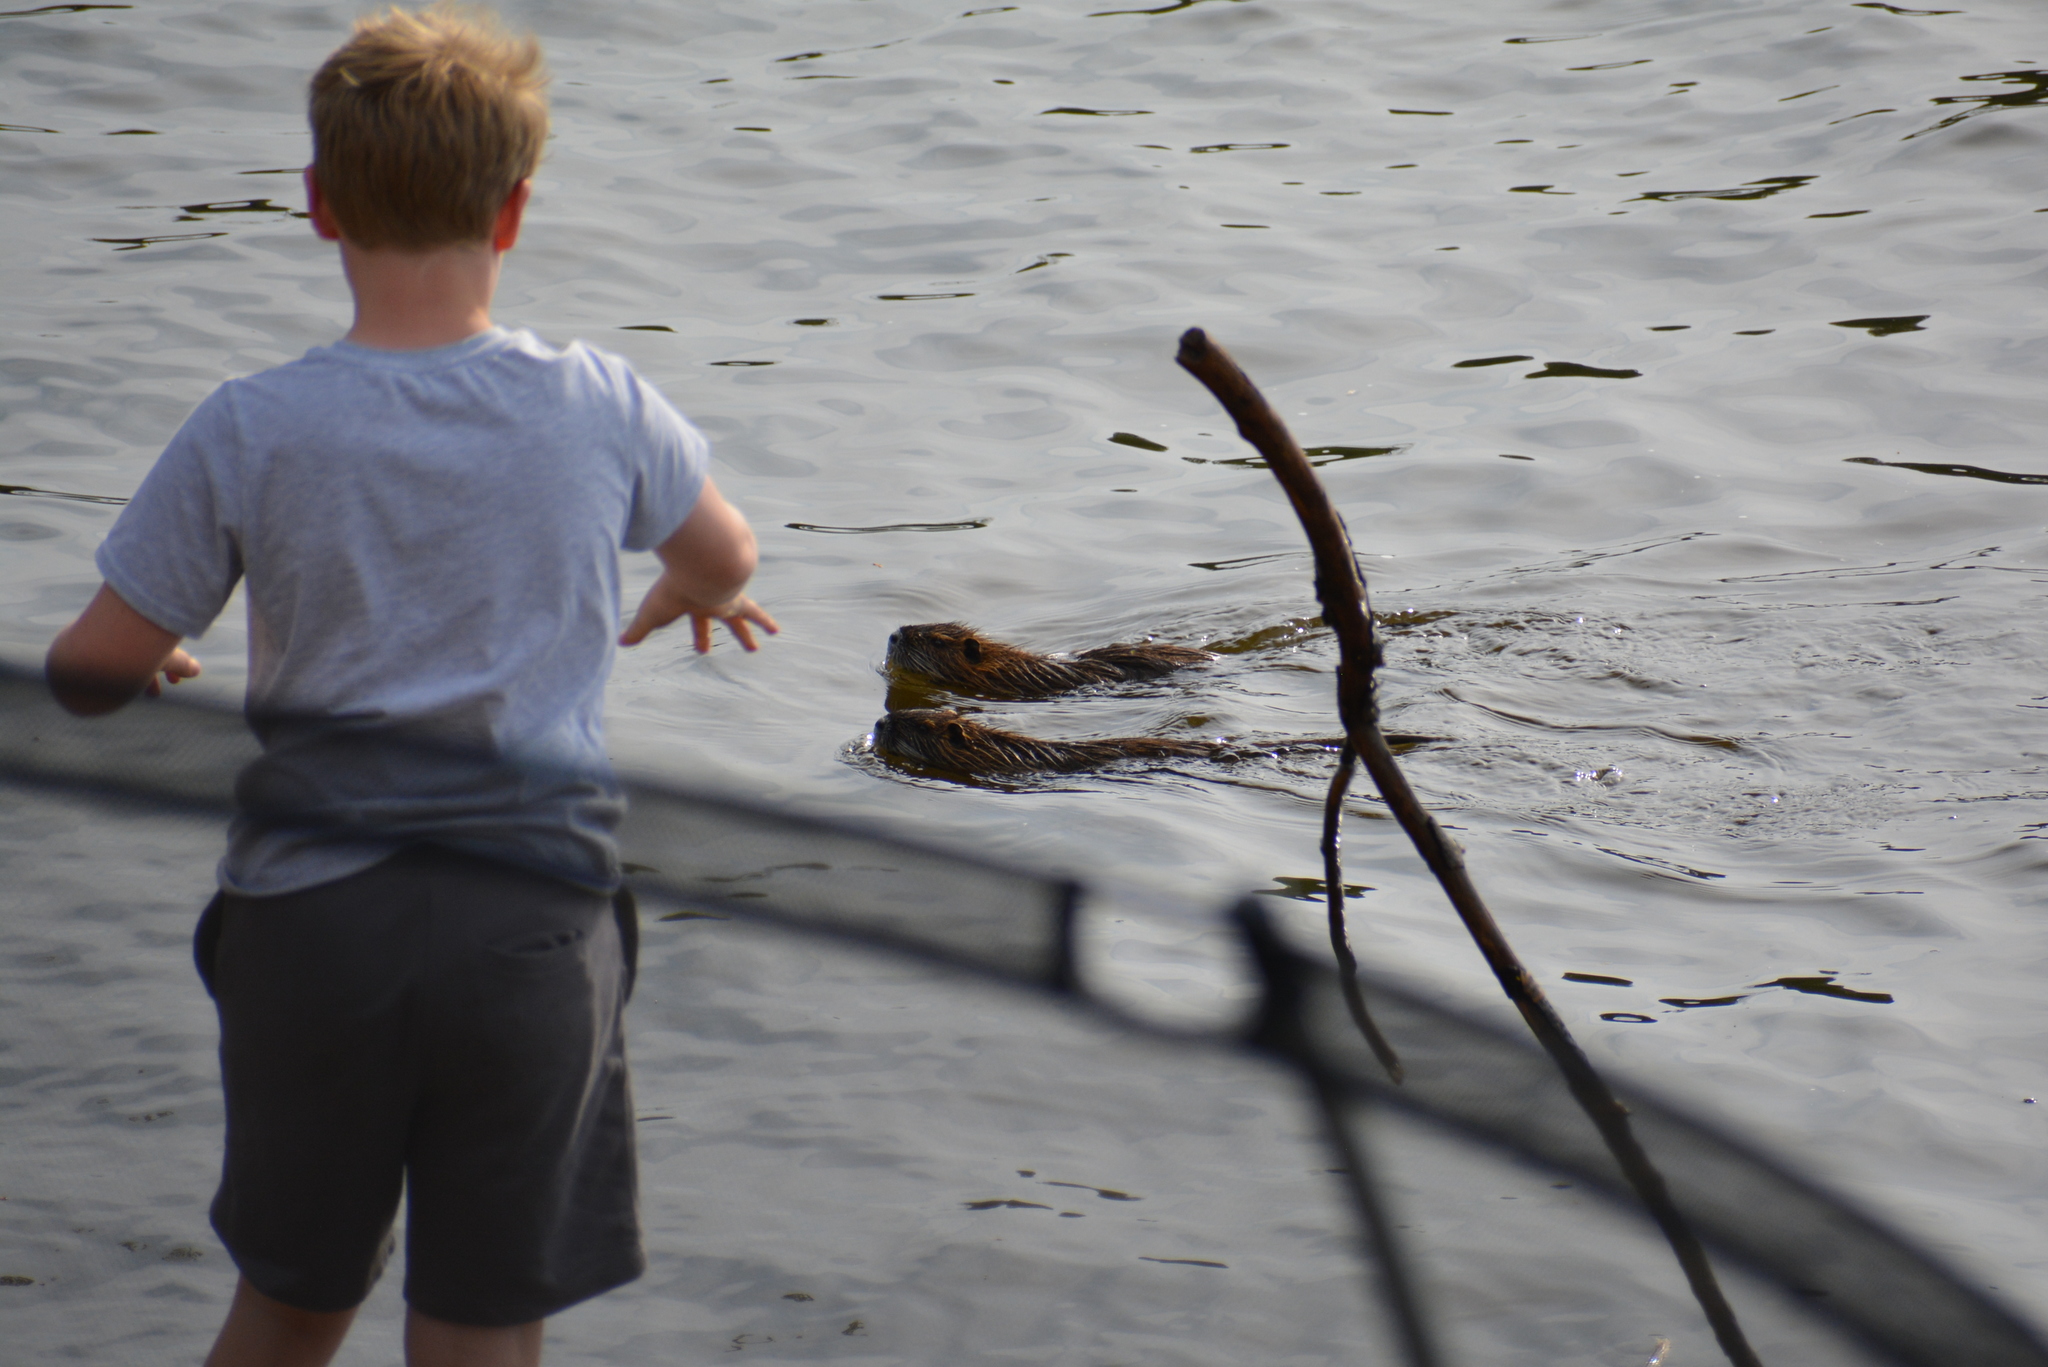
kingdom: Animalia
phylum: Chordata
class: Mammalia
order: Rodentia
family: Myocastoridae
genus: Myocastor
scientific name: Myocastor coypus
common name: Coypu
